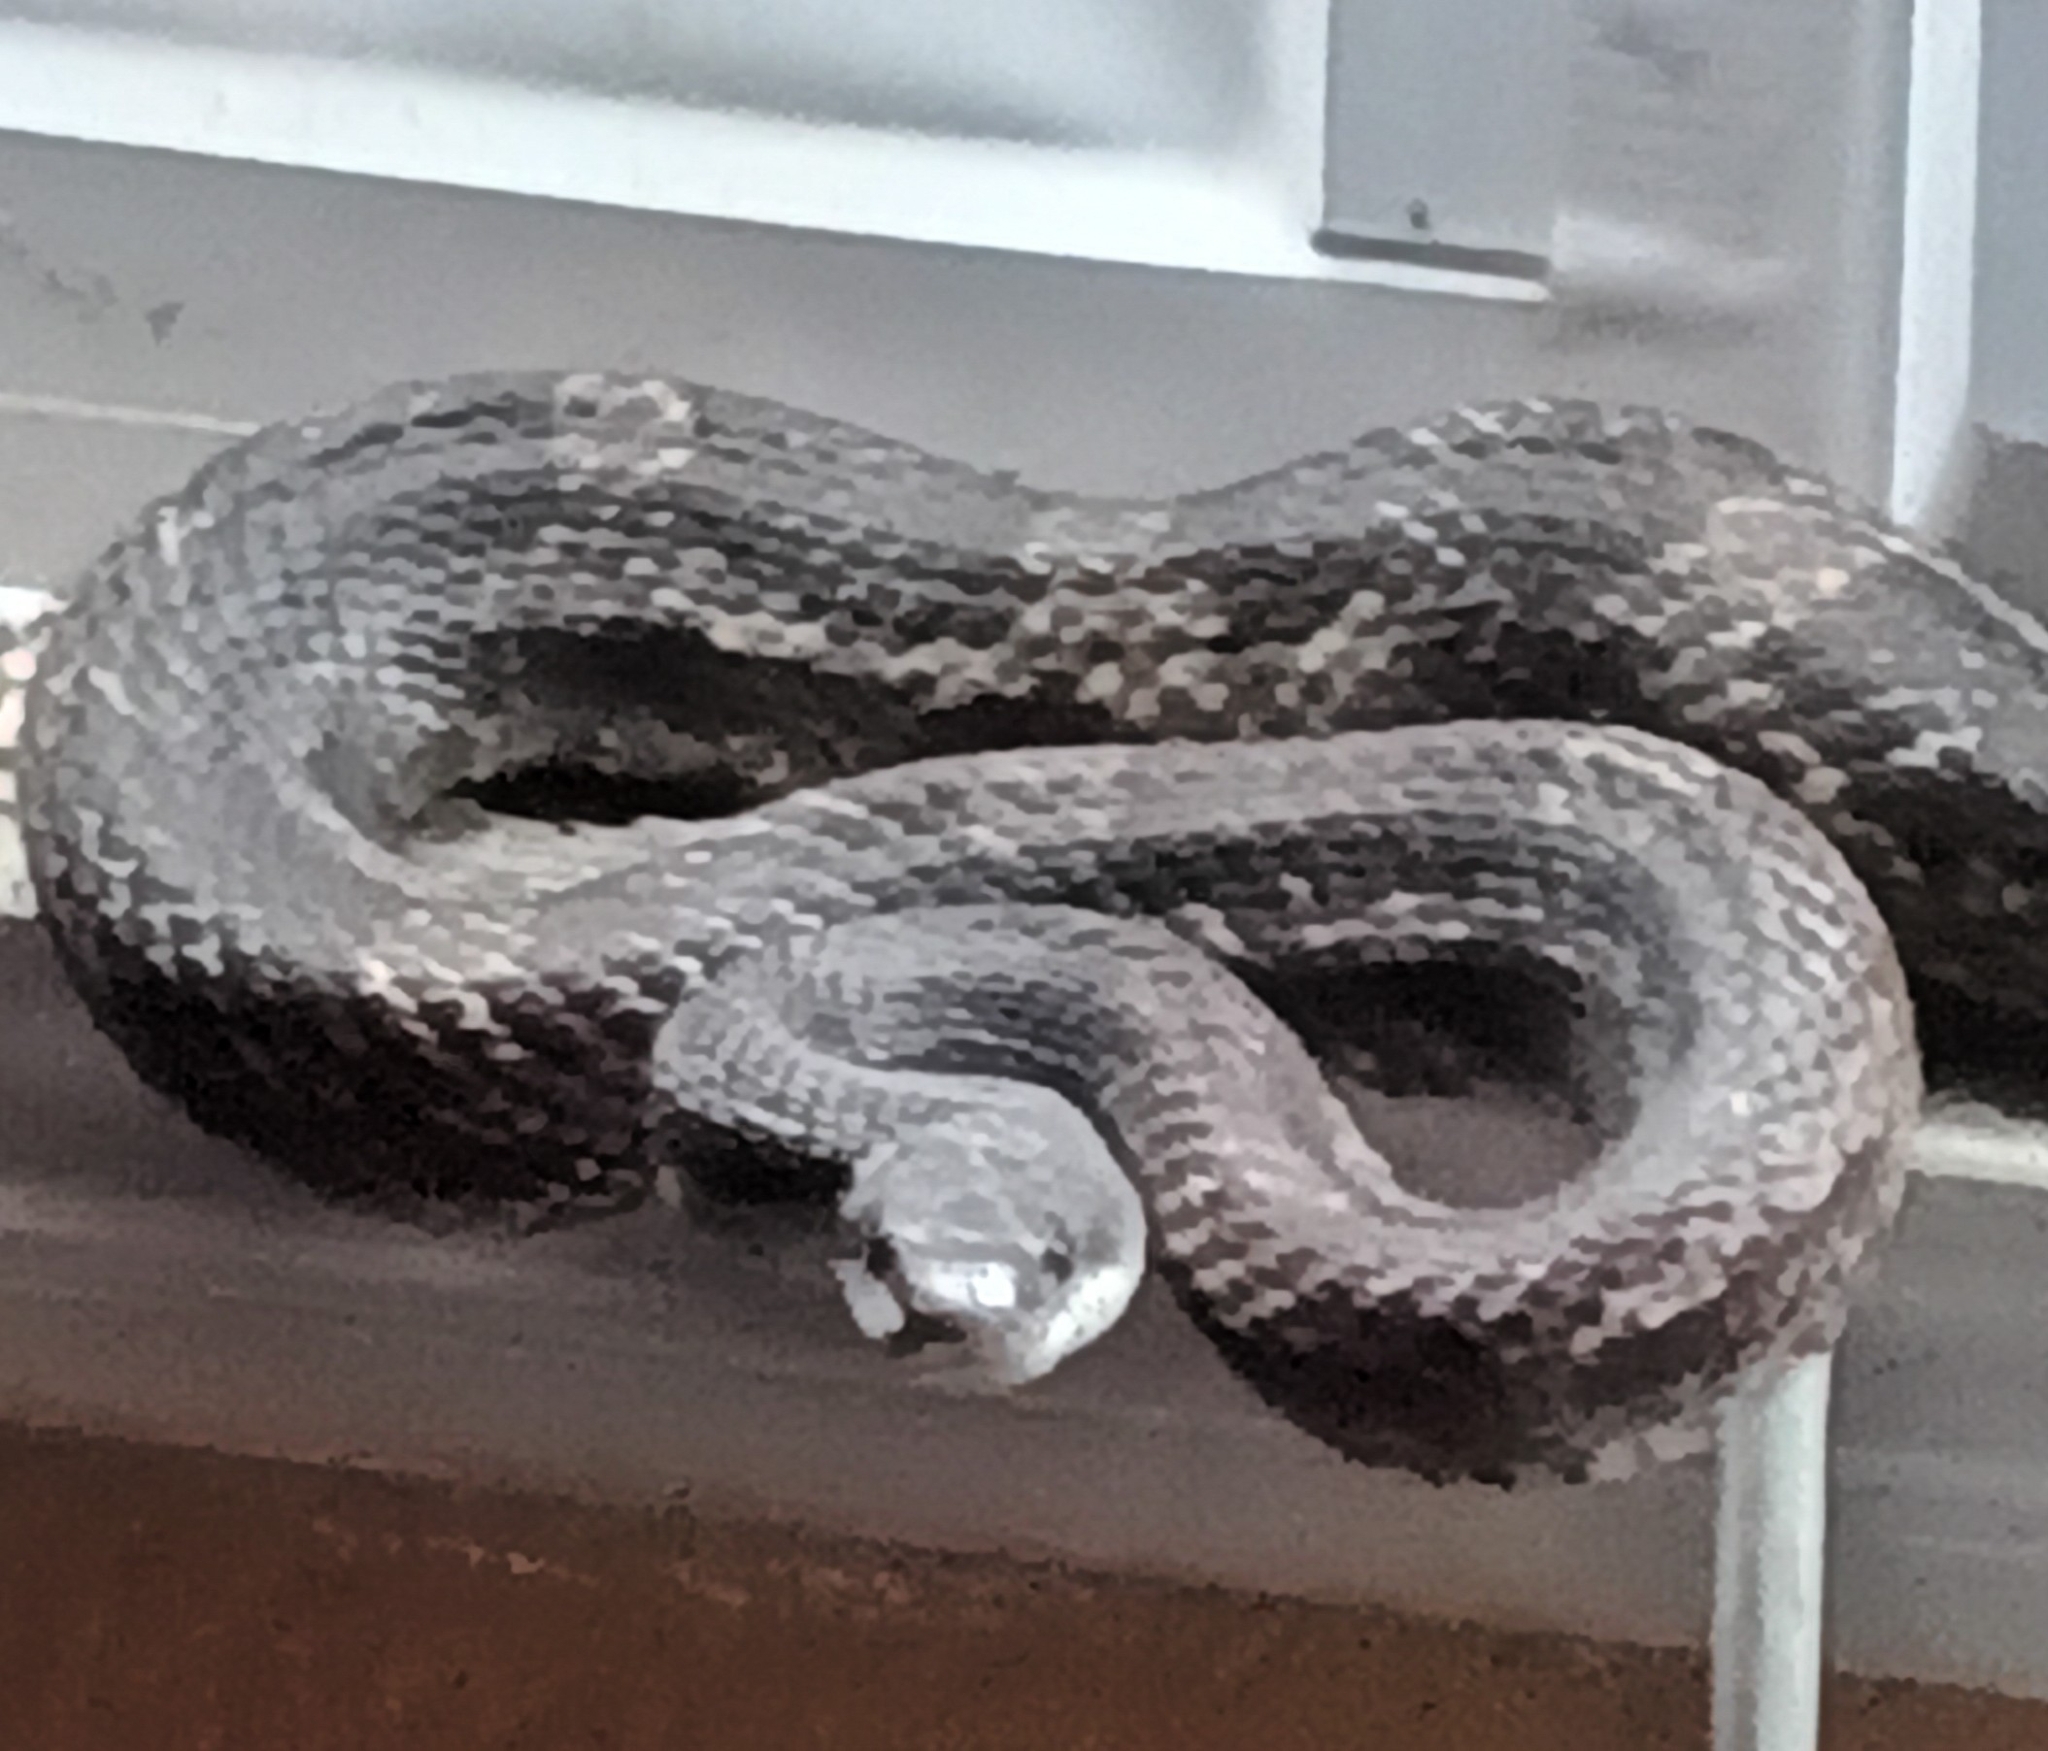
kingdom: Animalia
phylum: Chordata
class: Squamata
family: Colubridae
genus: Pantherophis
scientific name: Pantherophis obsoletus
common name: Black rat snake
